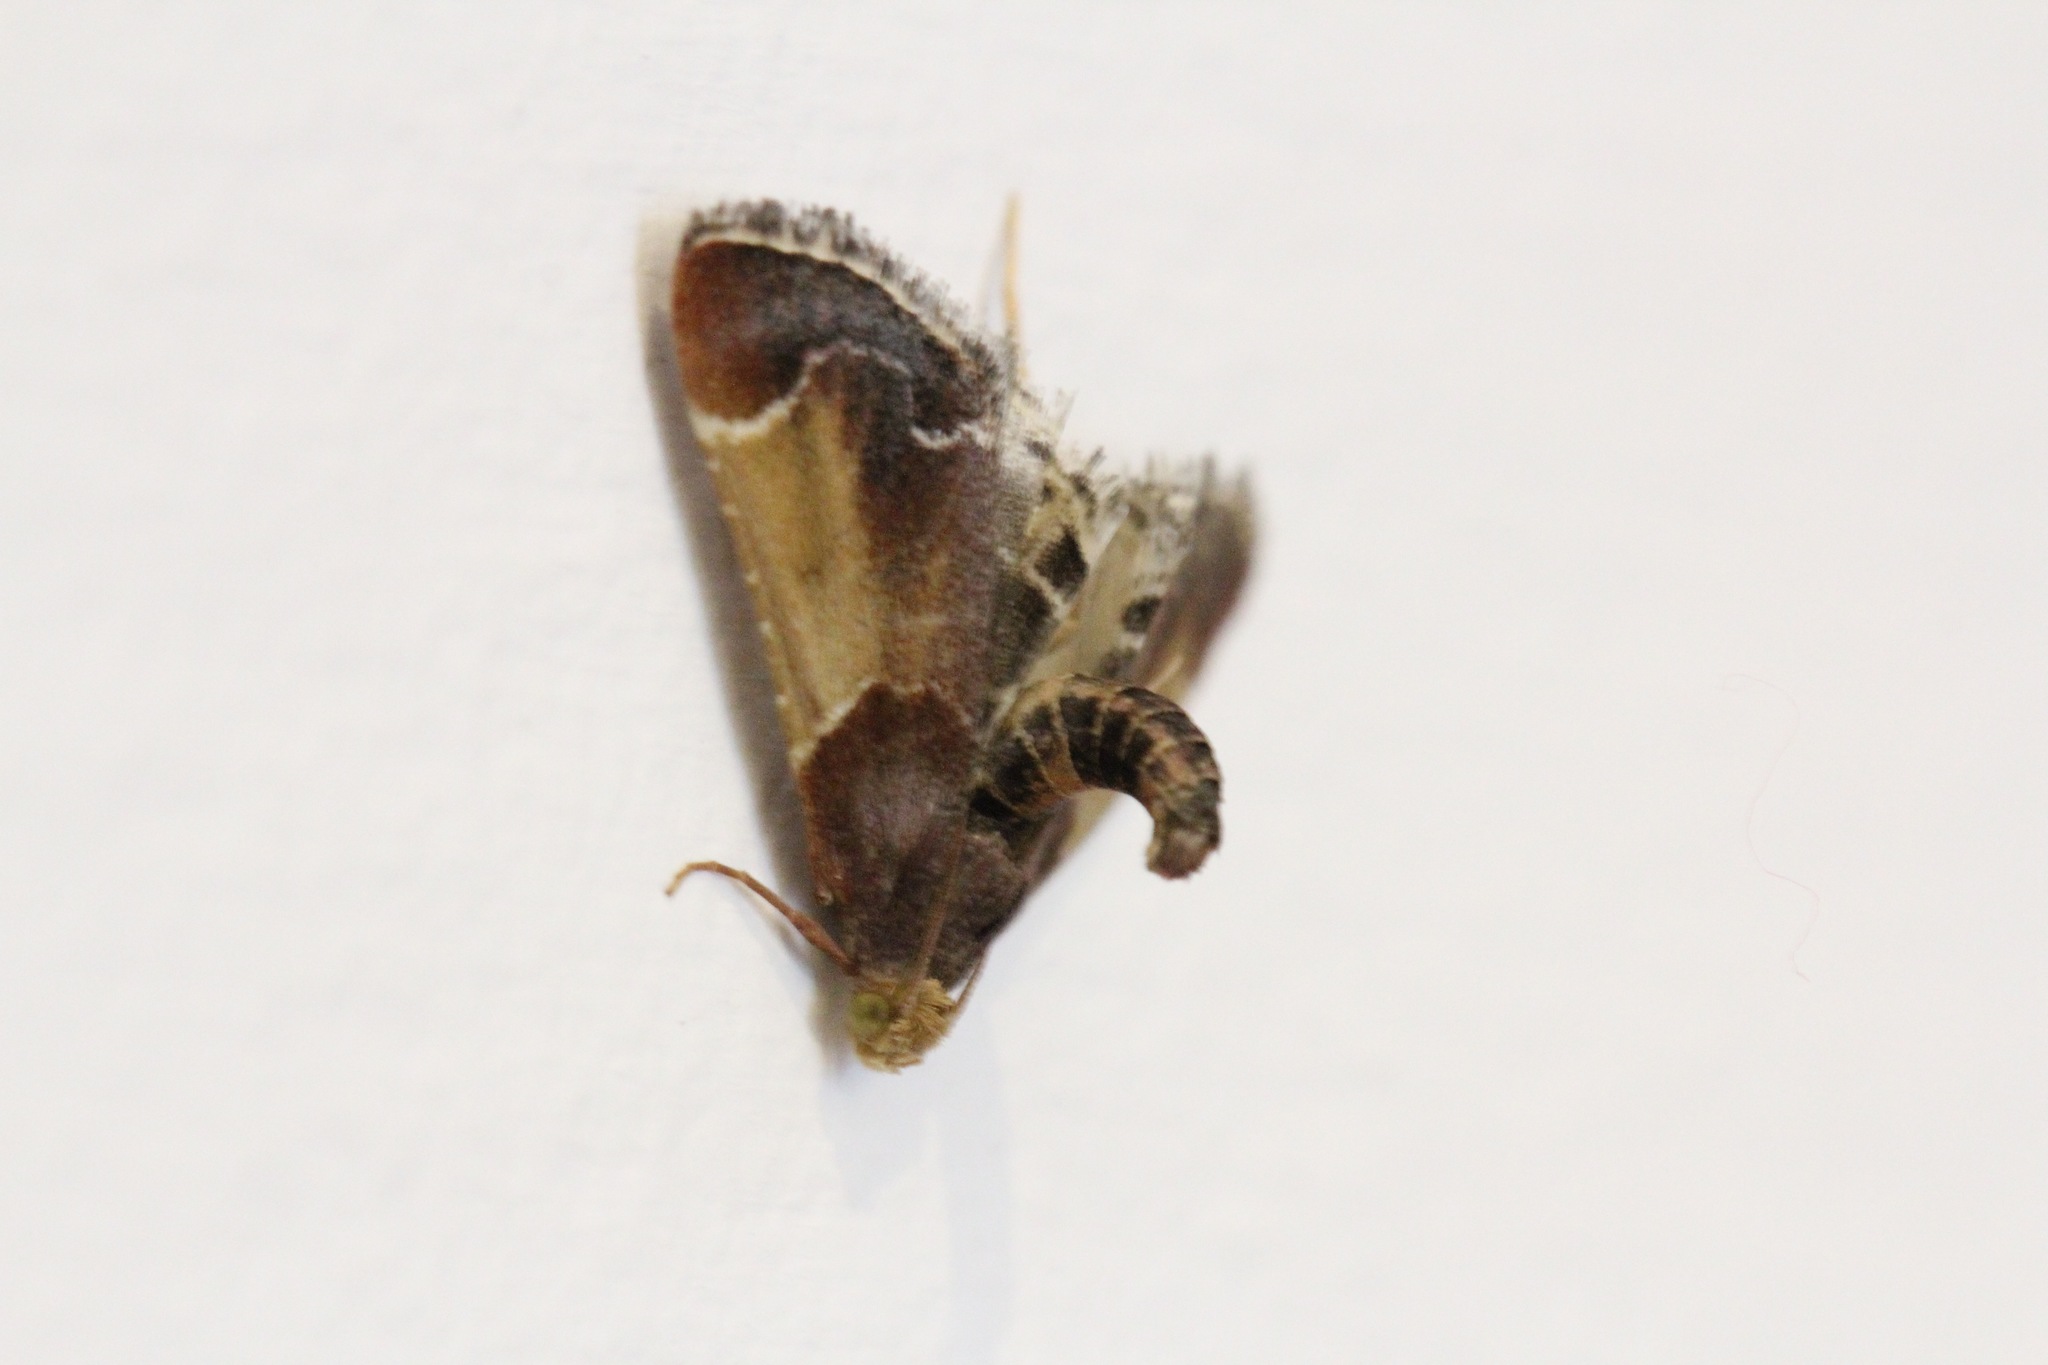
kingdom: Animalia
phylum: Arthropoda
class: Insecta
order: Lepidoptera
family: Pyralidae
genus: Pyralis
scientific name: Pyralis farinalis
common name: Meal moth
